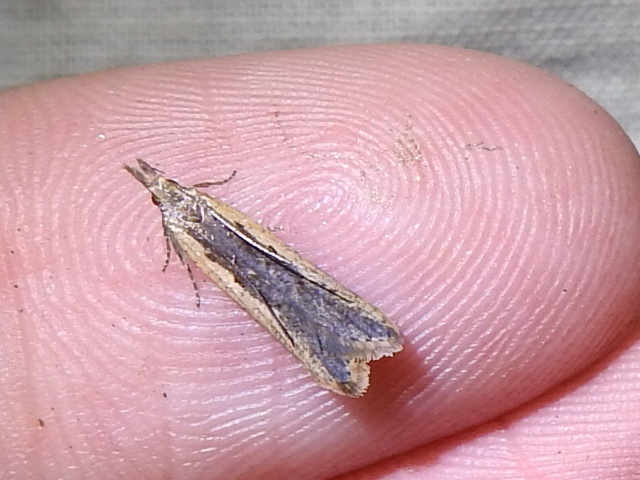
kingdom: Animalia
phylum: Arthropoda
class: Insecta
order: Lepidoptera
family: Gelechiidae
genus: Dichomeris
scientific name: Dichomeris ligulella
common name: Moth
